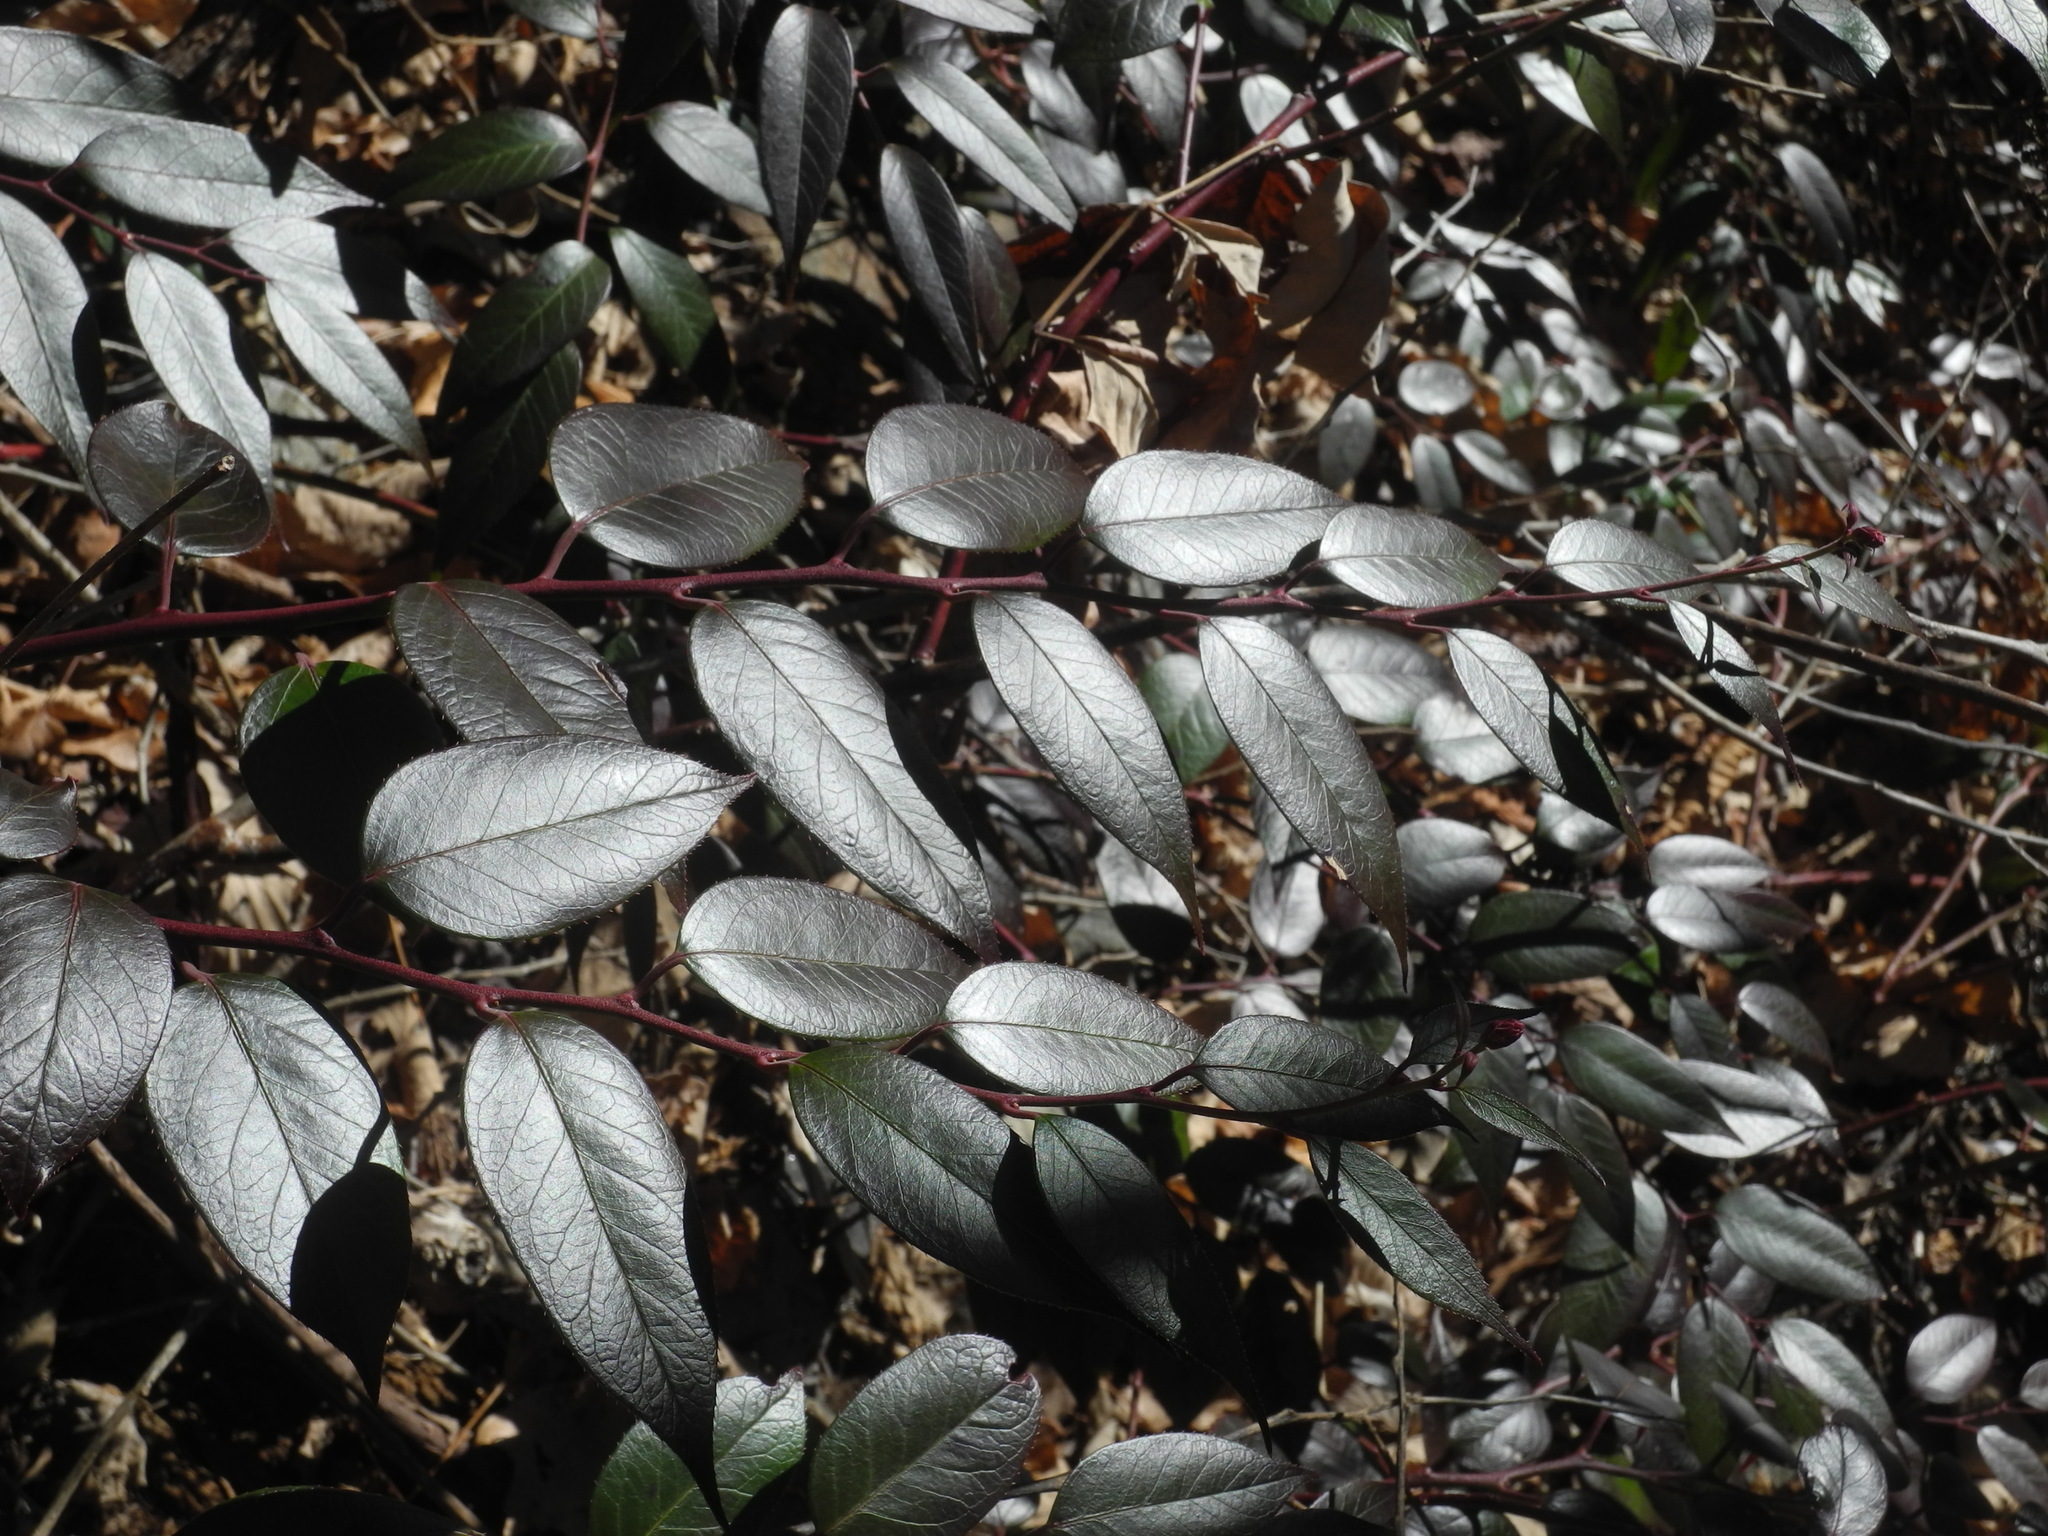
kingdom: Plantae
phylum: Tracheophyta
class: Magnoliopsida
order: Ericales
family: Ericaceae
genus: Leucothoe
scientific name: Leucothoe fontanesiana
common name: Fetterbush
